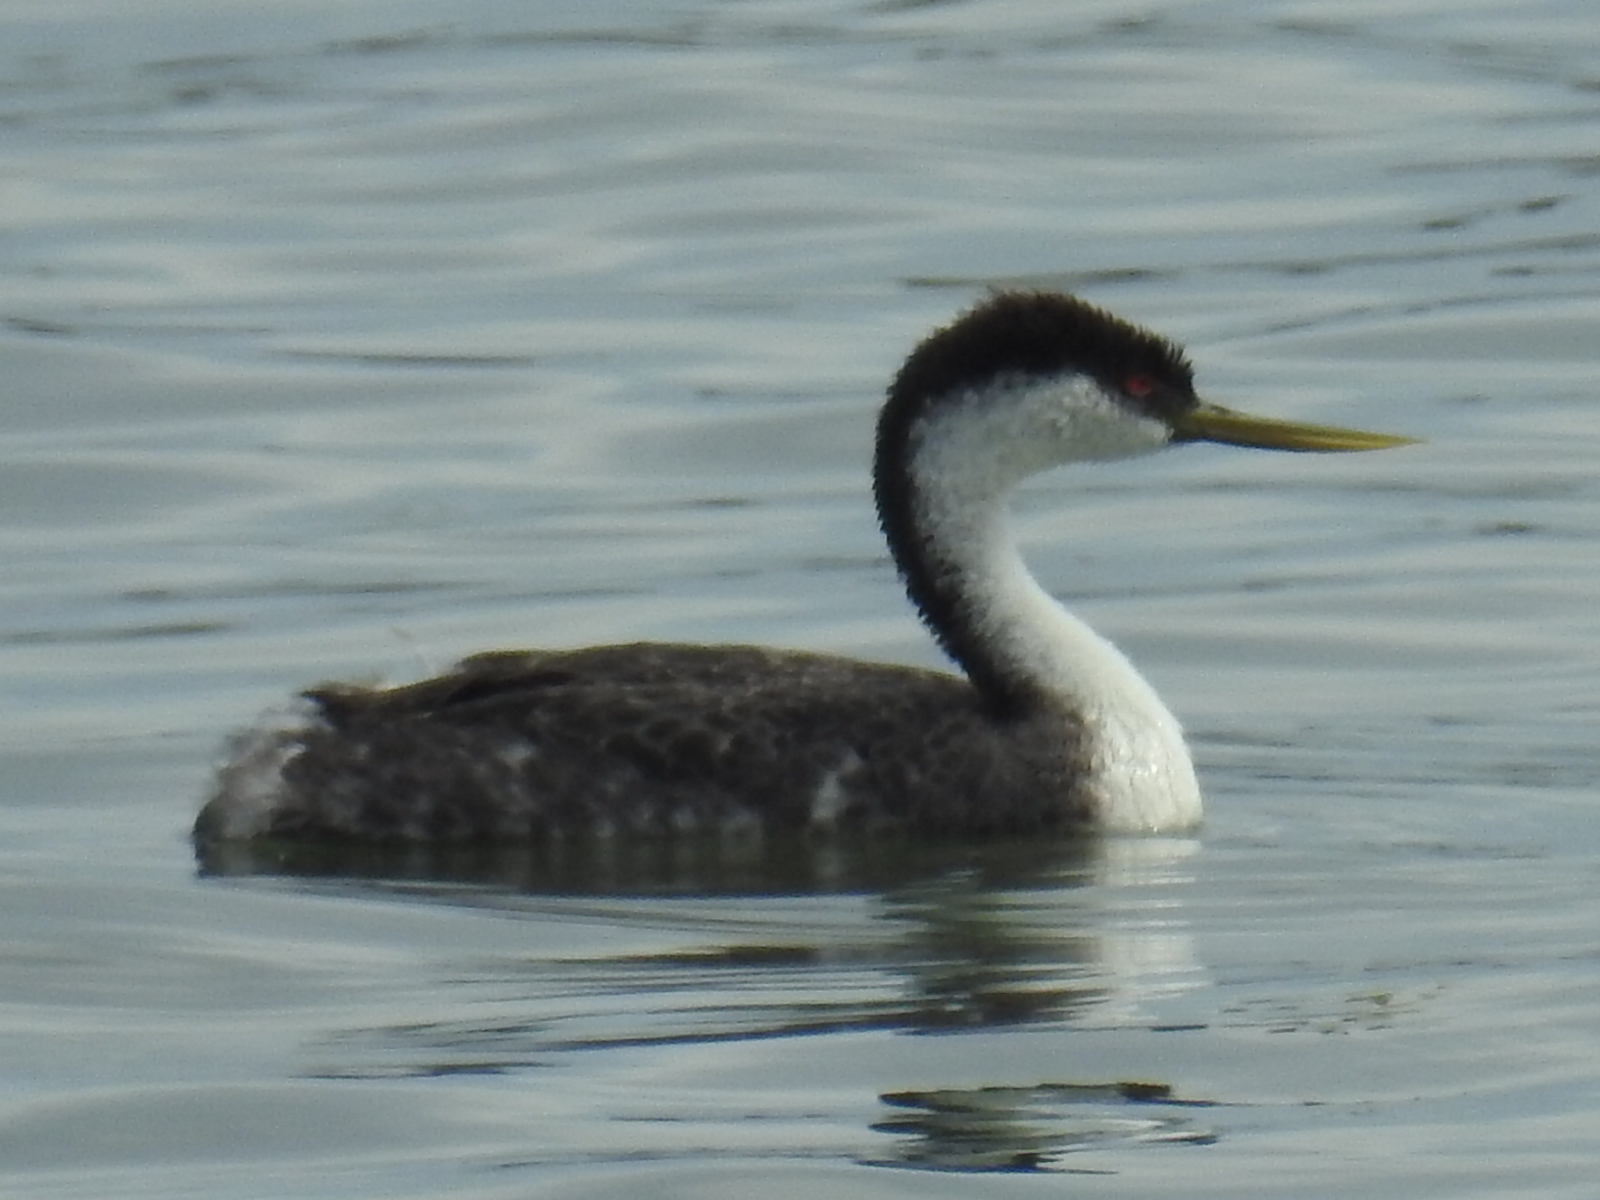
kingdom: Animalia
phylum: Chordata
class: Aves
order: Podicipediformes
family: Podicipedidae
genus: Aechmophorus
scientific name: Aechmophorus occidentalis
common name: Western grebe
